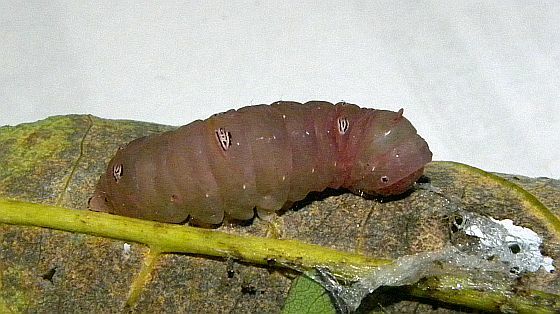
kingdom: Animalia
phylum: Arthropoda
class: Insecta
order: Lepidoptera
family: Noctuidae
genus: Raphia
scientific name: Raphia frater
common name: Brother
